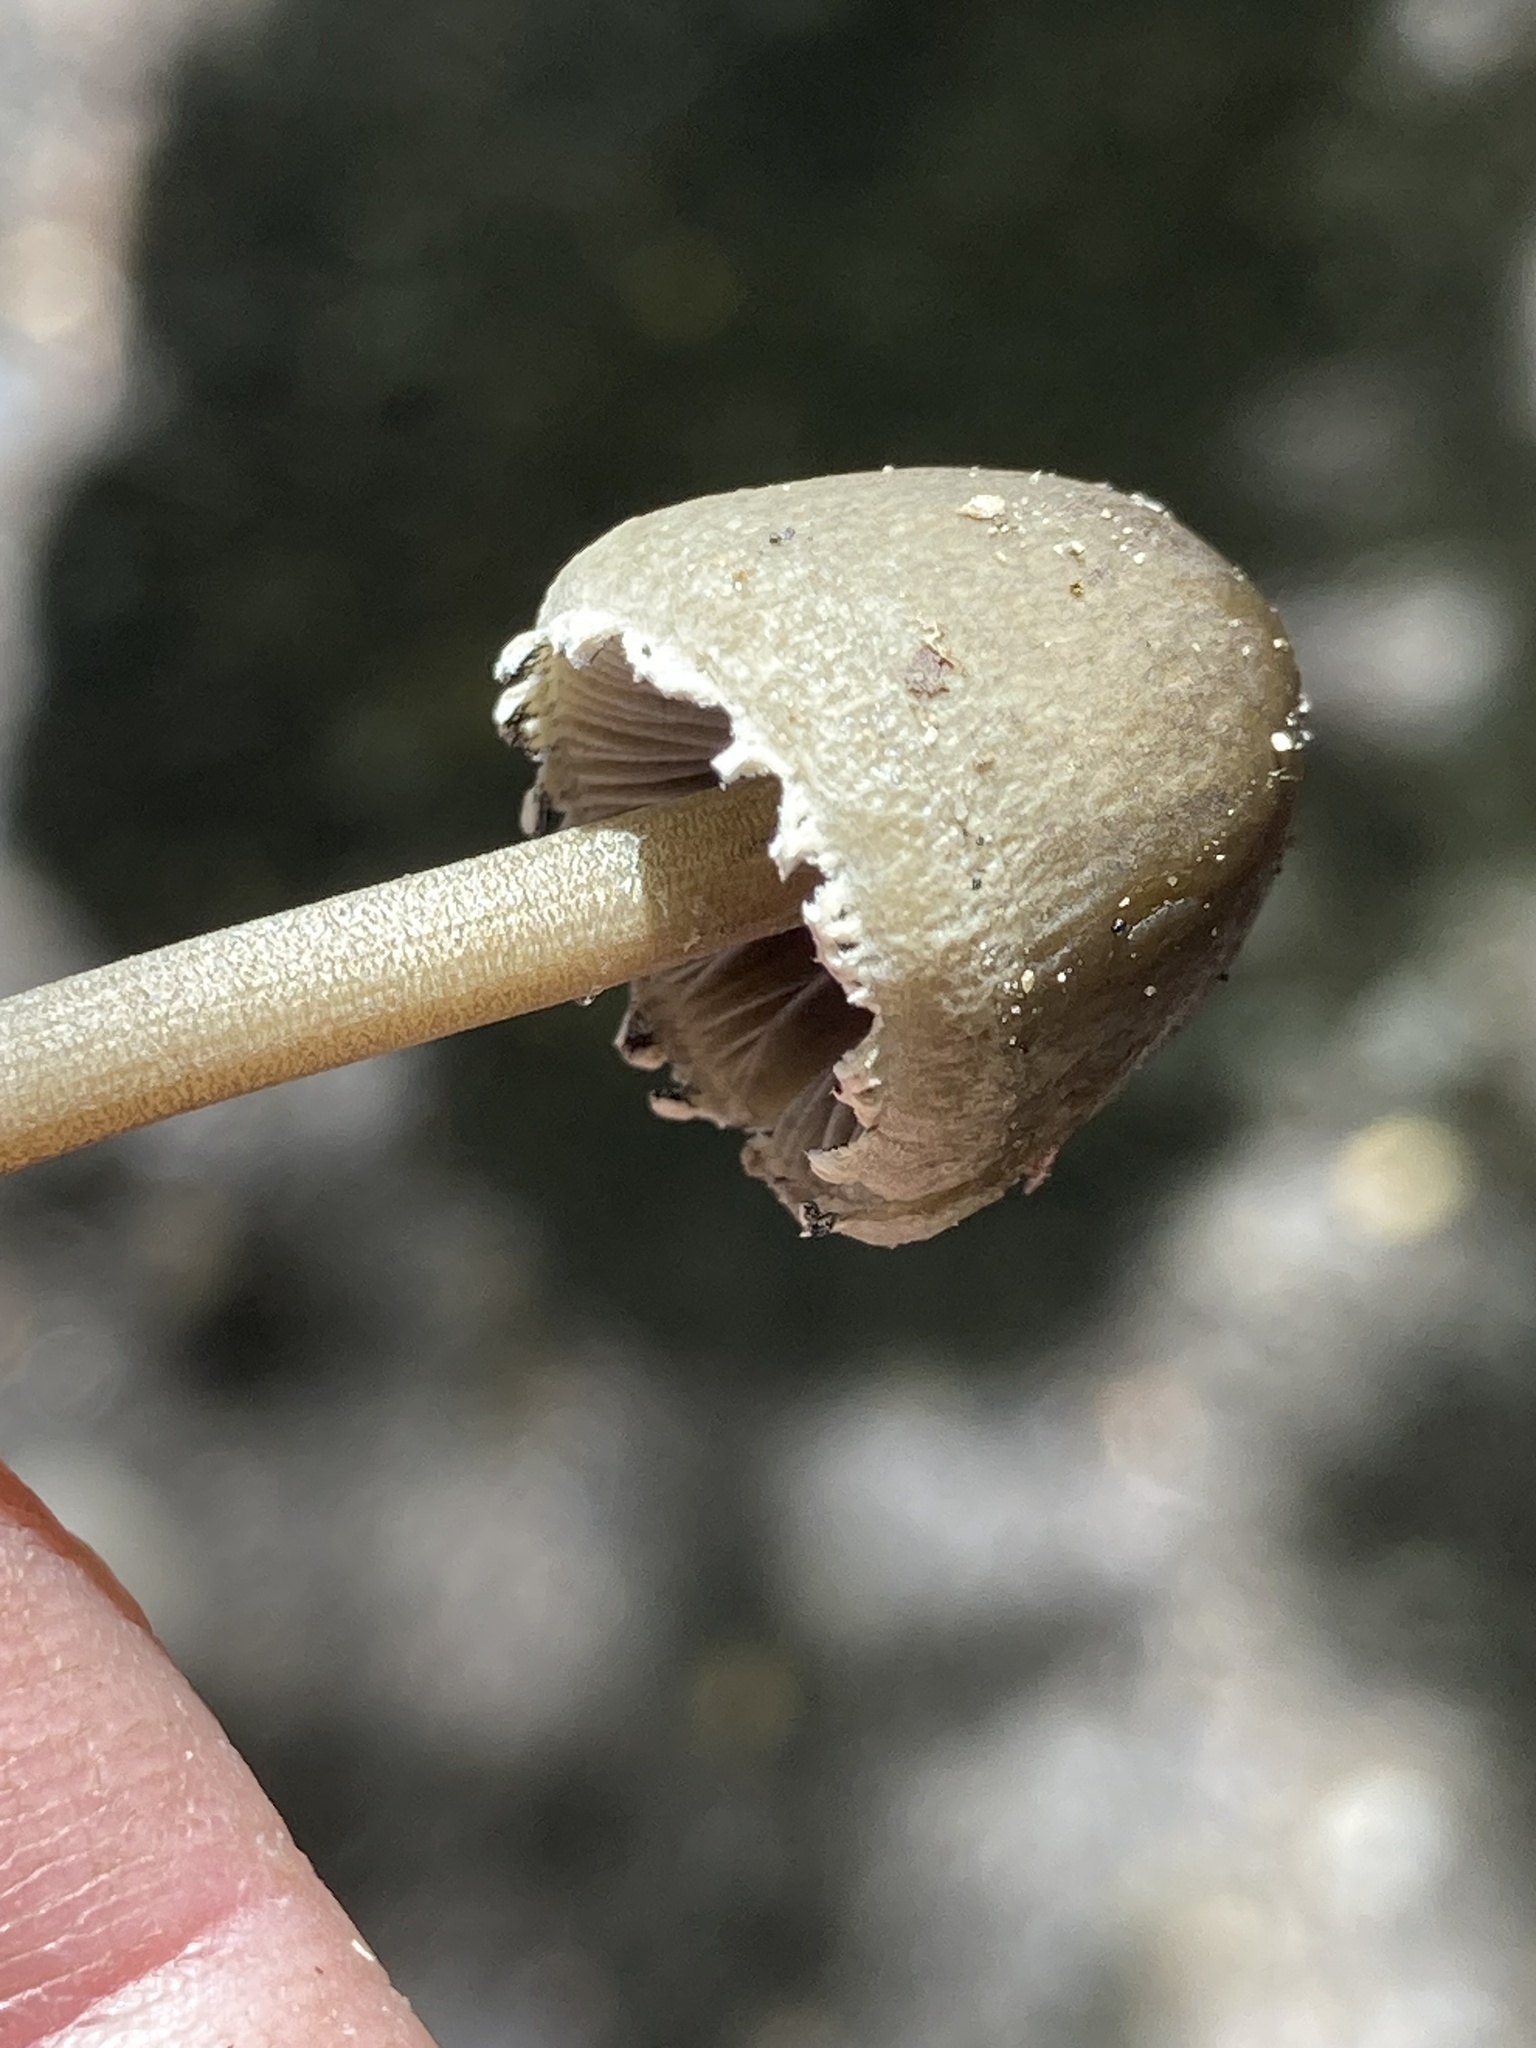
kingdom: Fungi
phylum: Basidiomycota
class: Agaricomycetes
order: Agaricales
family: Bolbitiaceae
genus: Panaeolus
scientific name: Panaeolus papilionaceus
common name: Petticoat mottlegill
